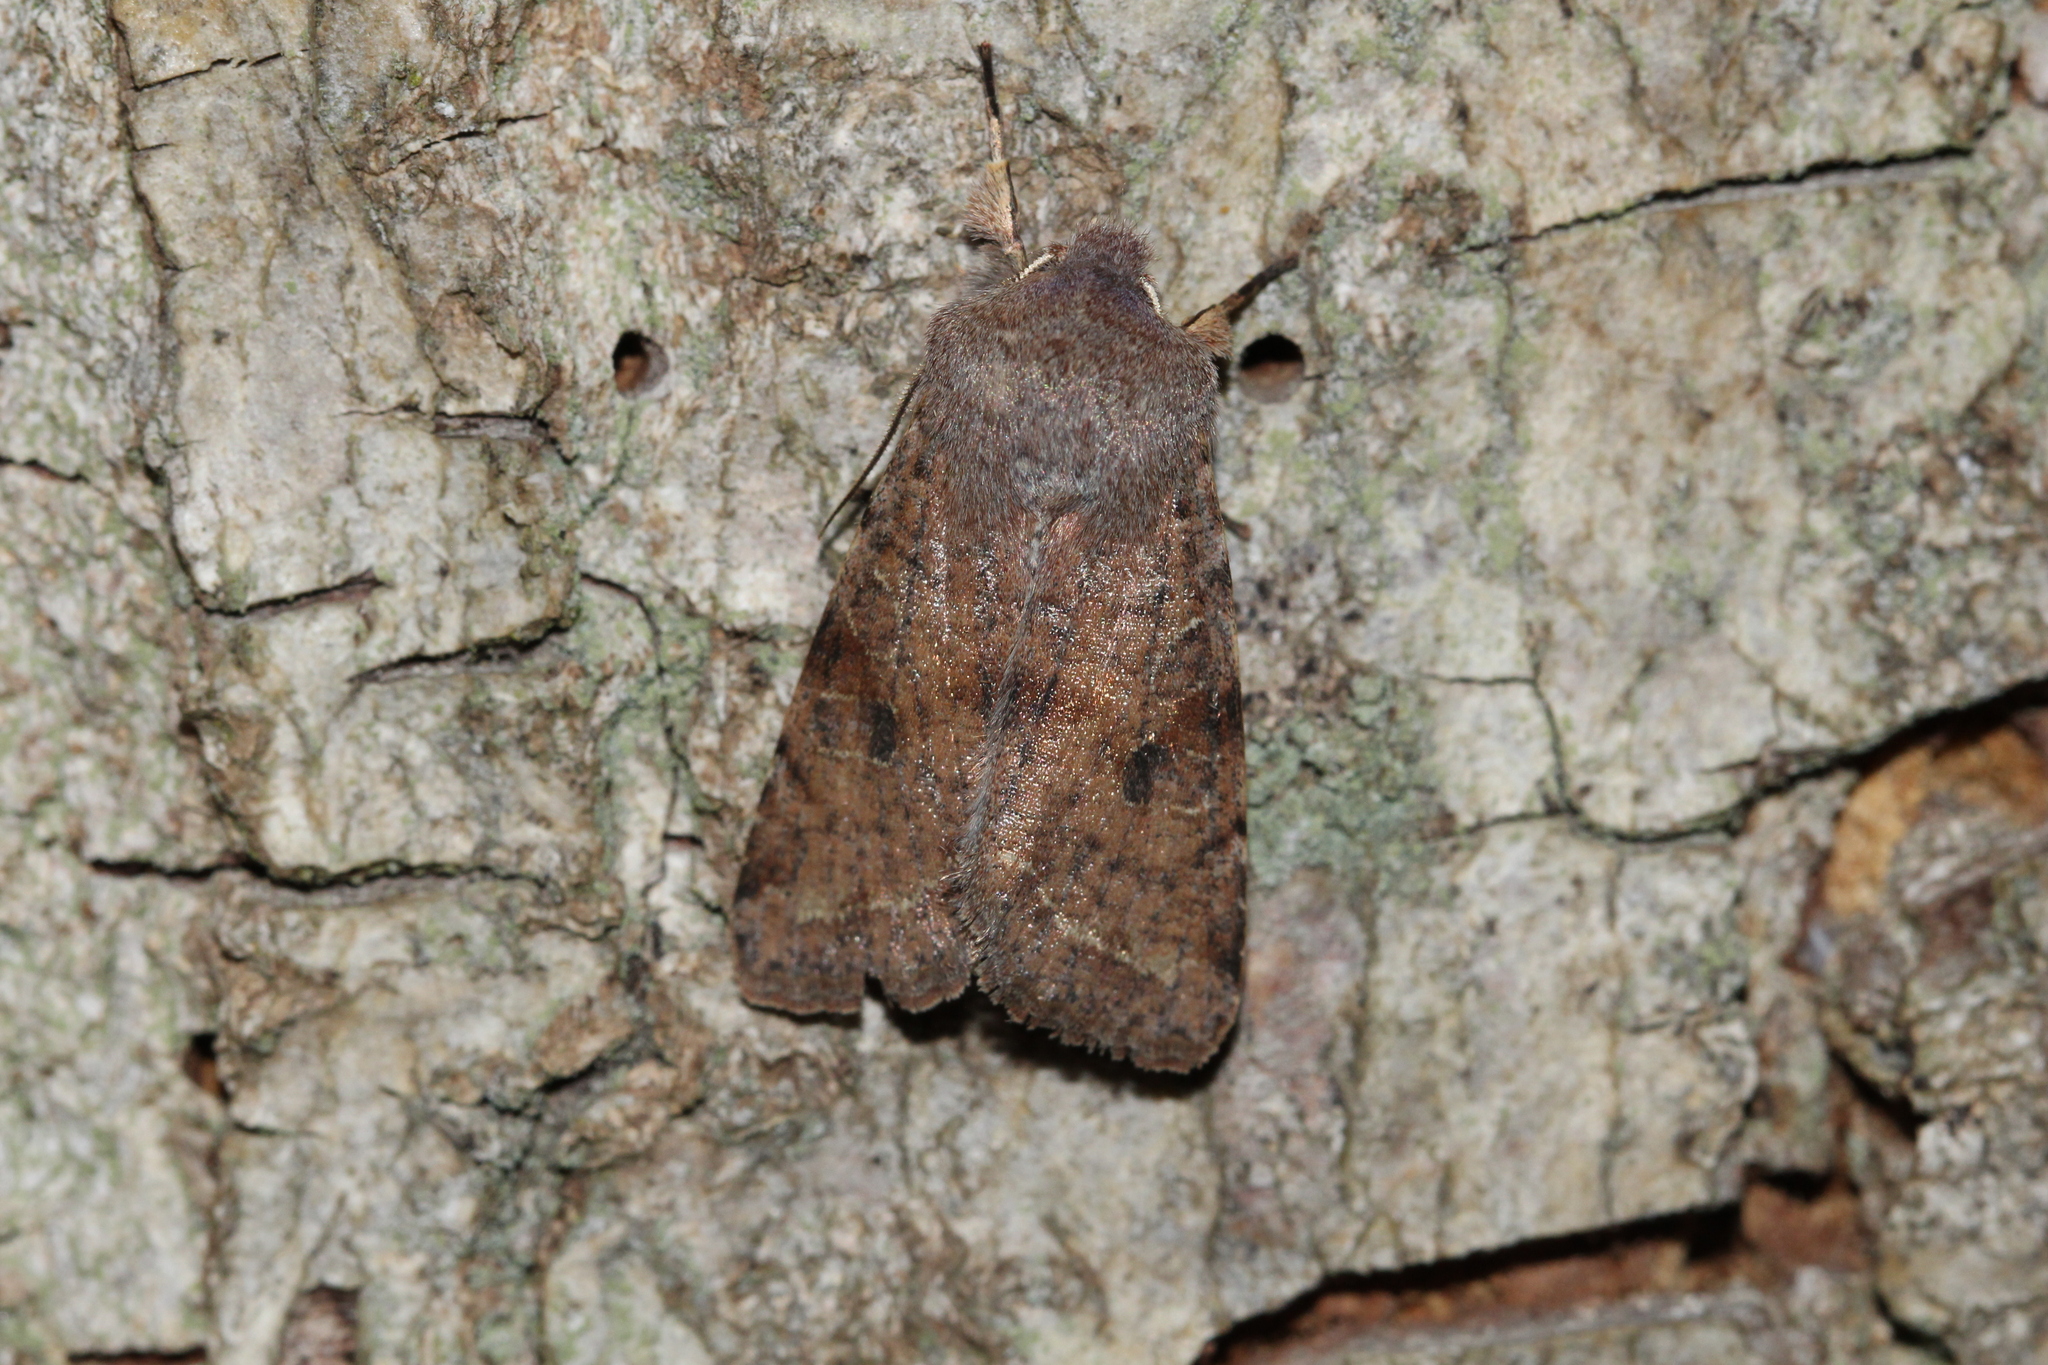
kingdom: Animalia
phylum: Arthropoda
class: Insecta
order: Lepidoptera
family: Noctuidae
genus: Orthosia
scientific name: Orthosia incerta
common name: Clouded drab
